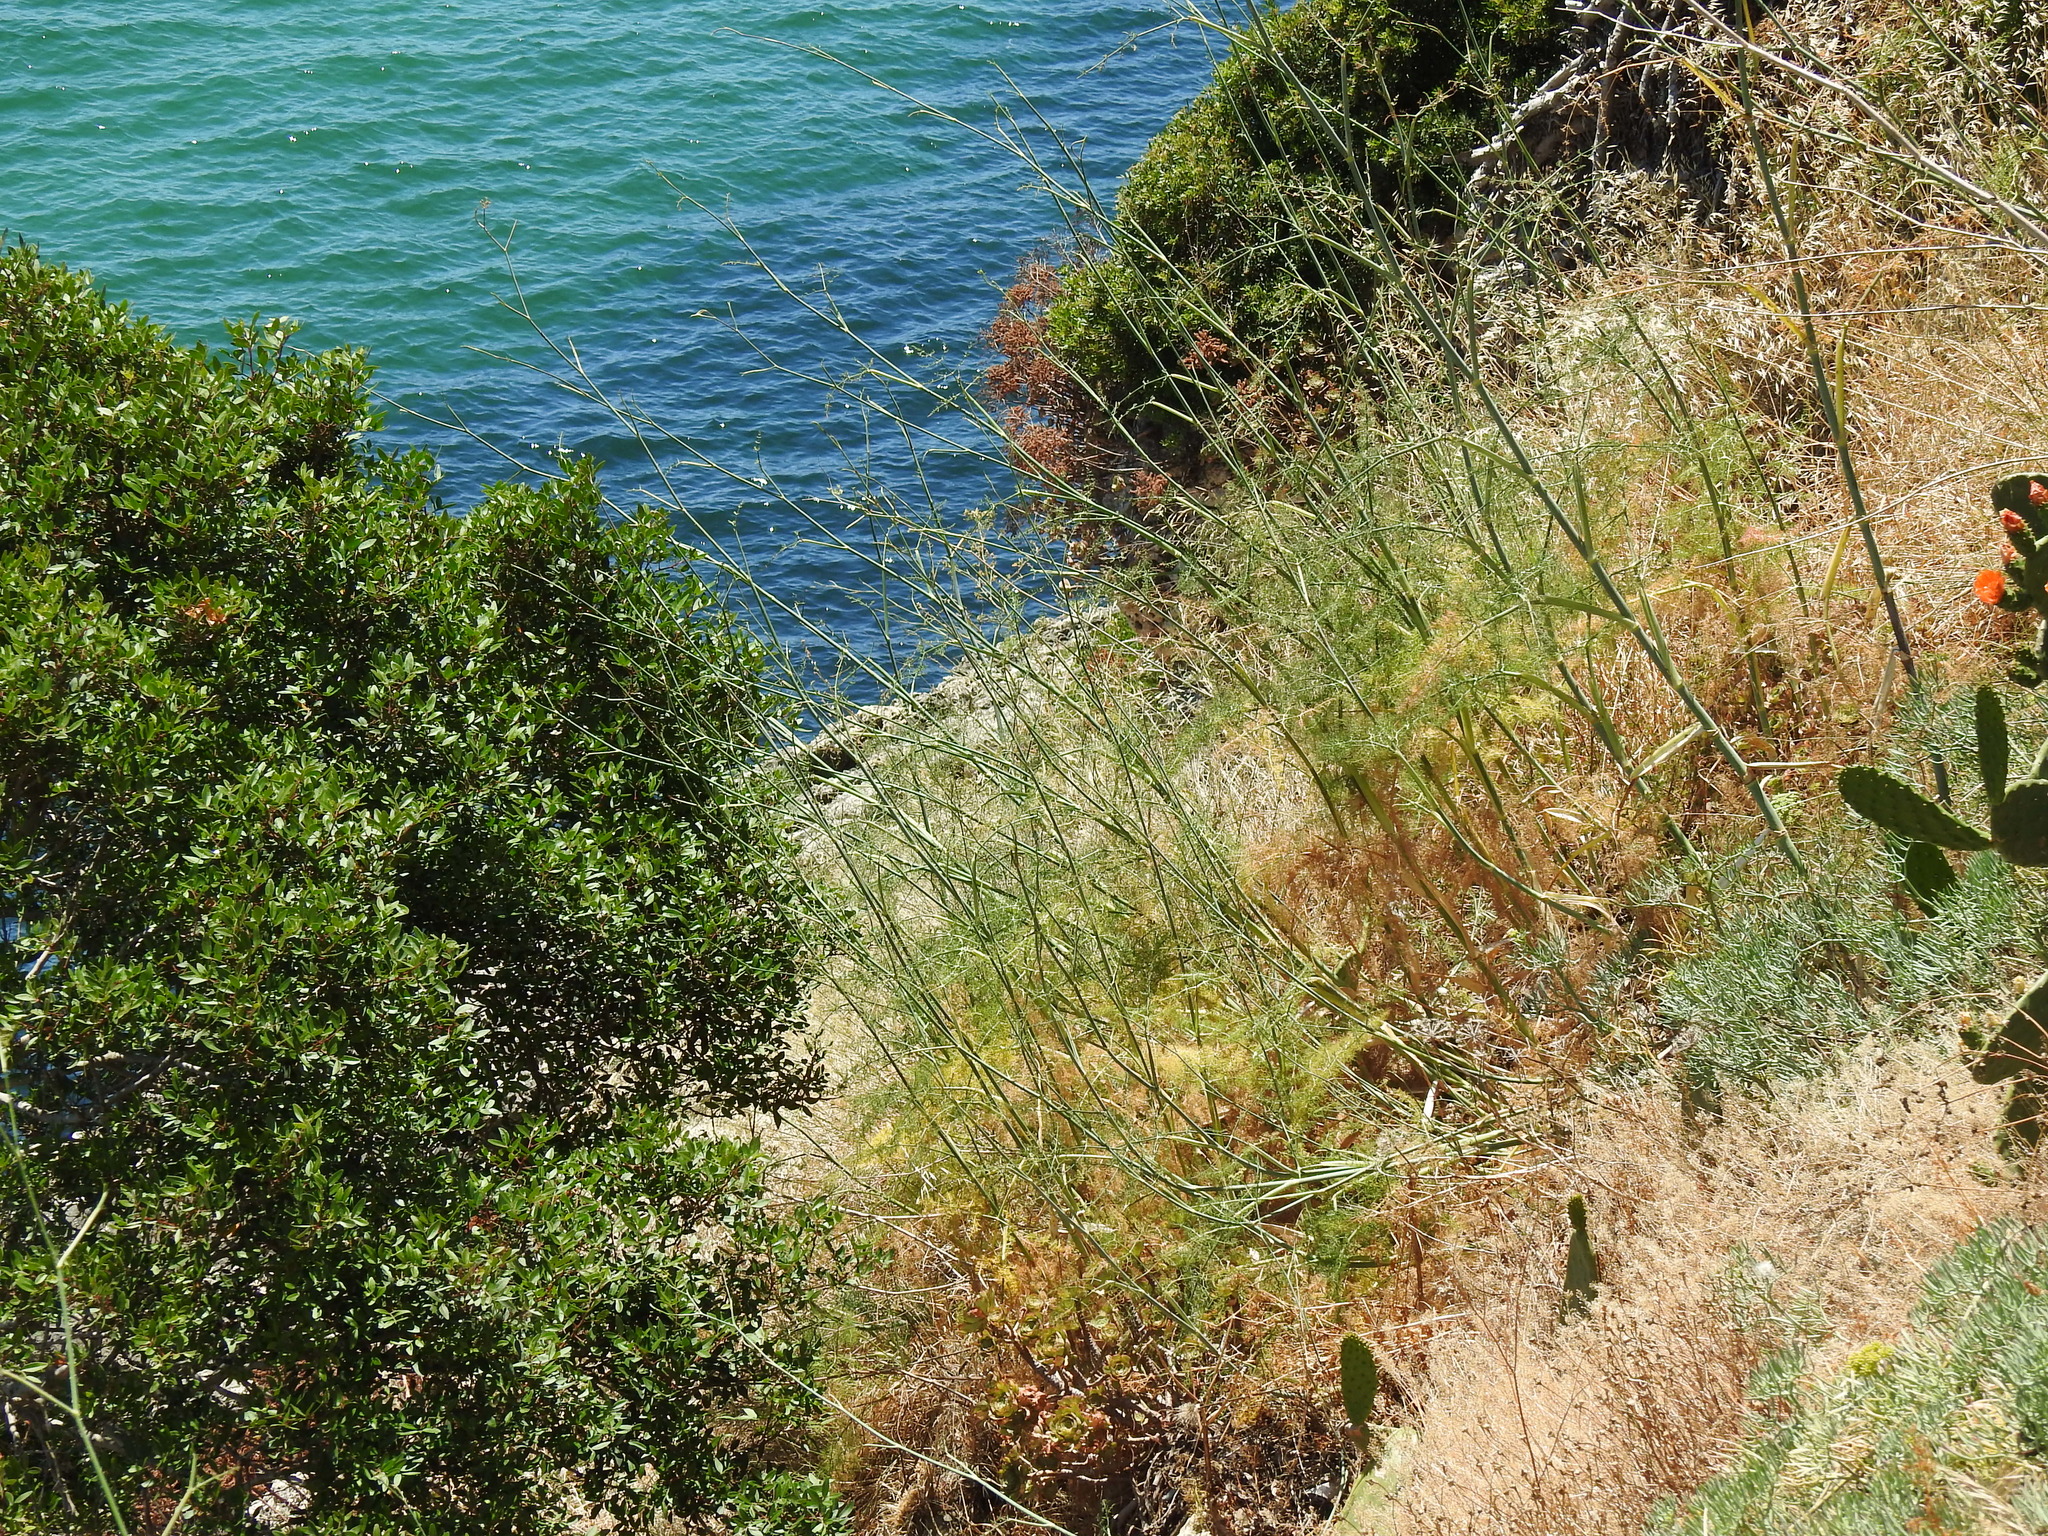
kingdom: Plantae
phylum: Tracheophyta
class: Magnoliopsida
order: Apiales
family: Apiaceae
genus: Foeniculum
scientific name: Foeniculum vulgare
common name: Fennel
